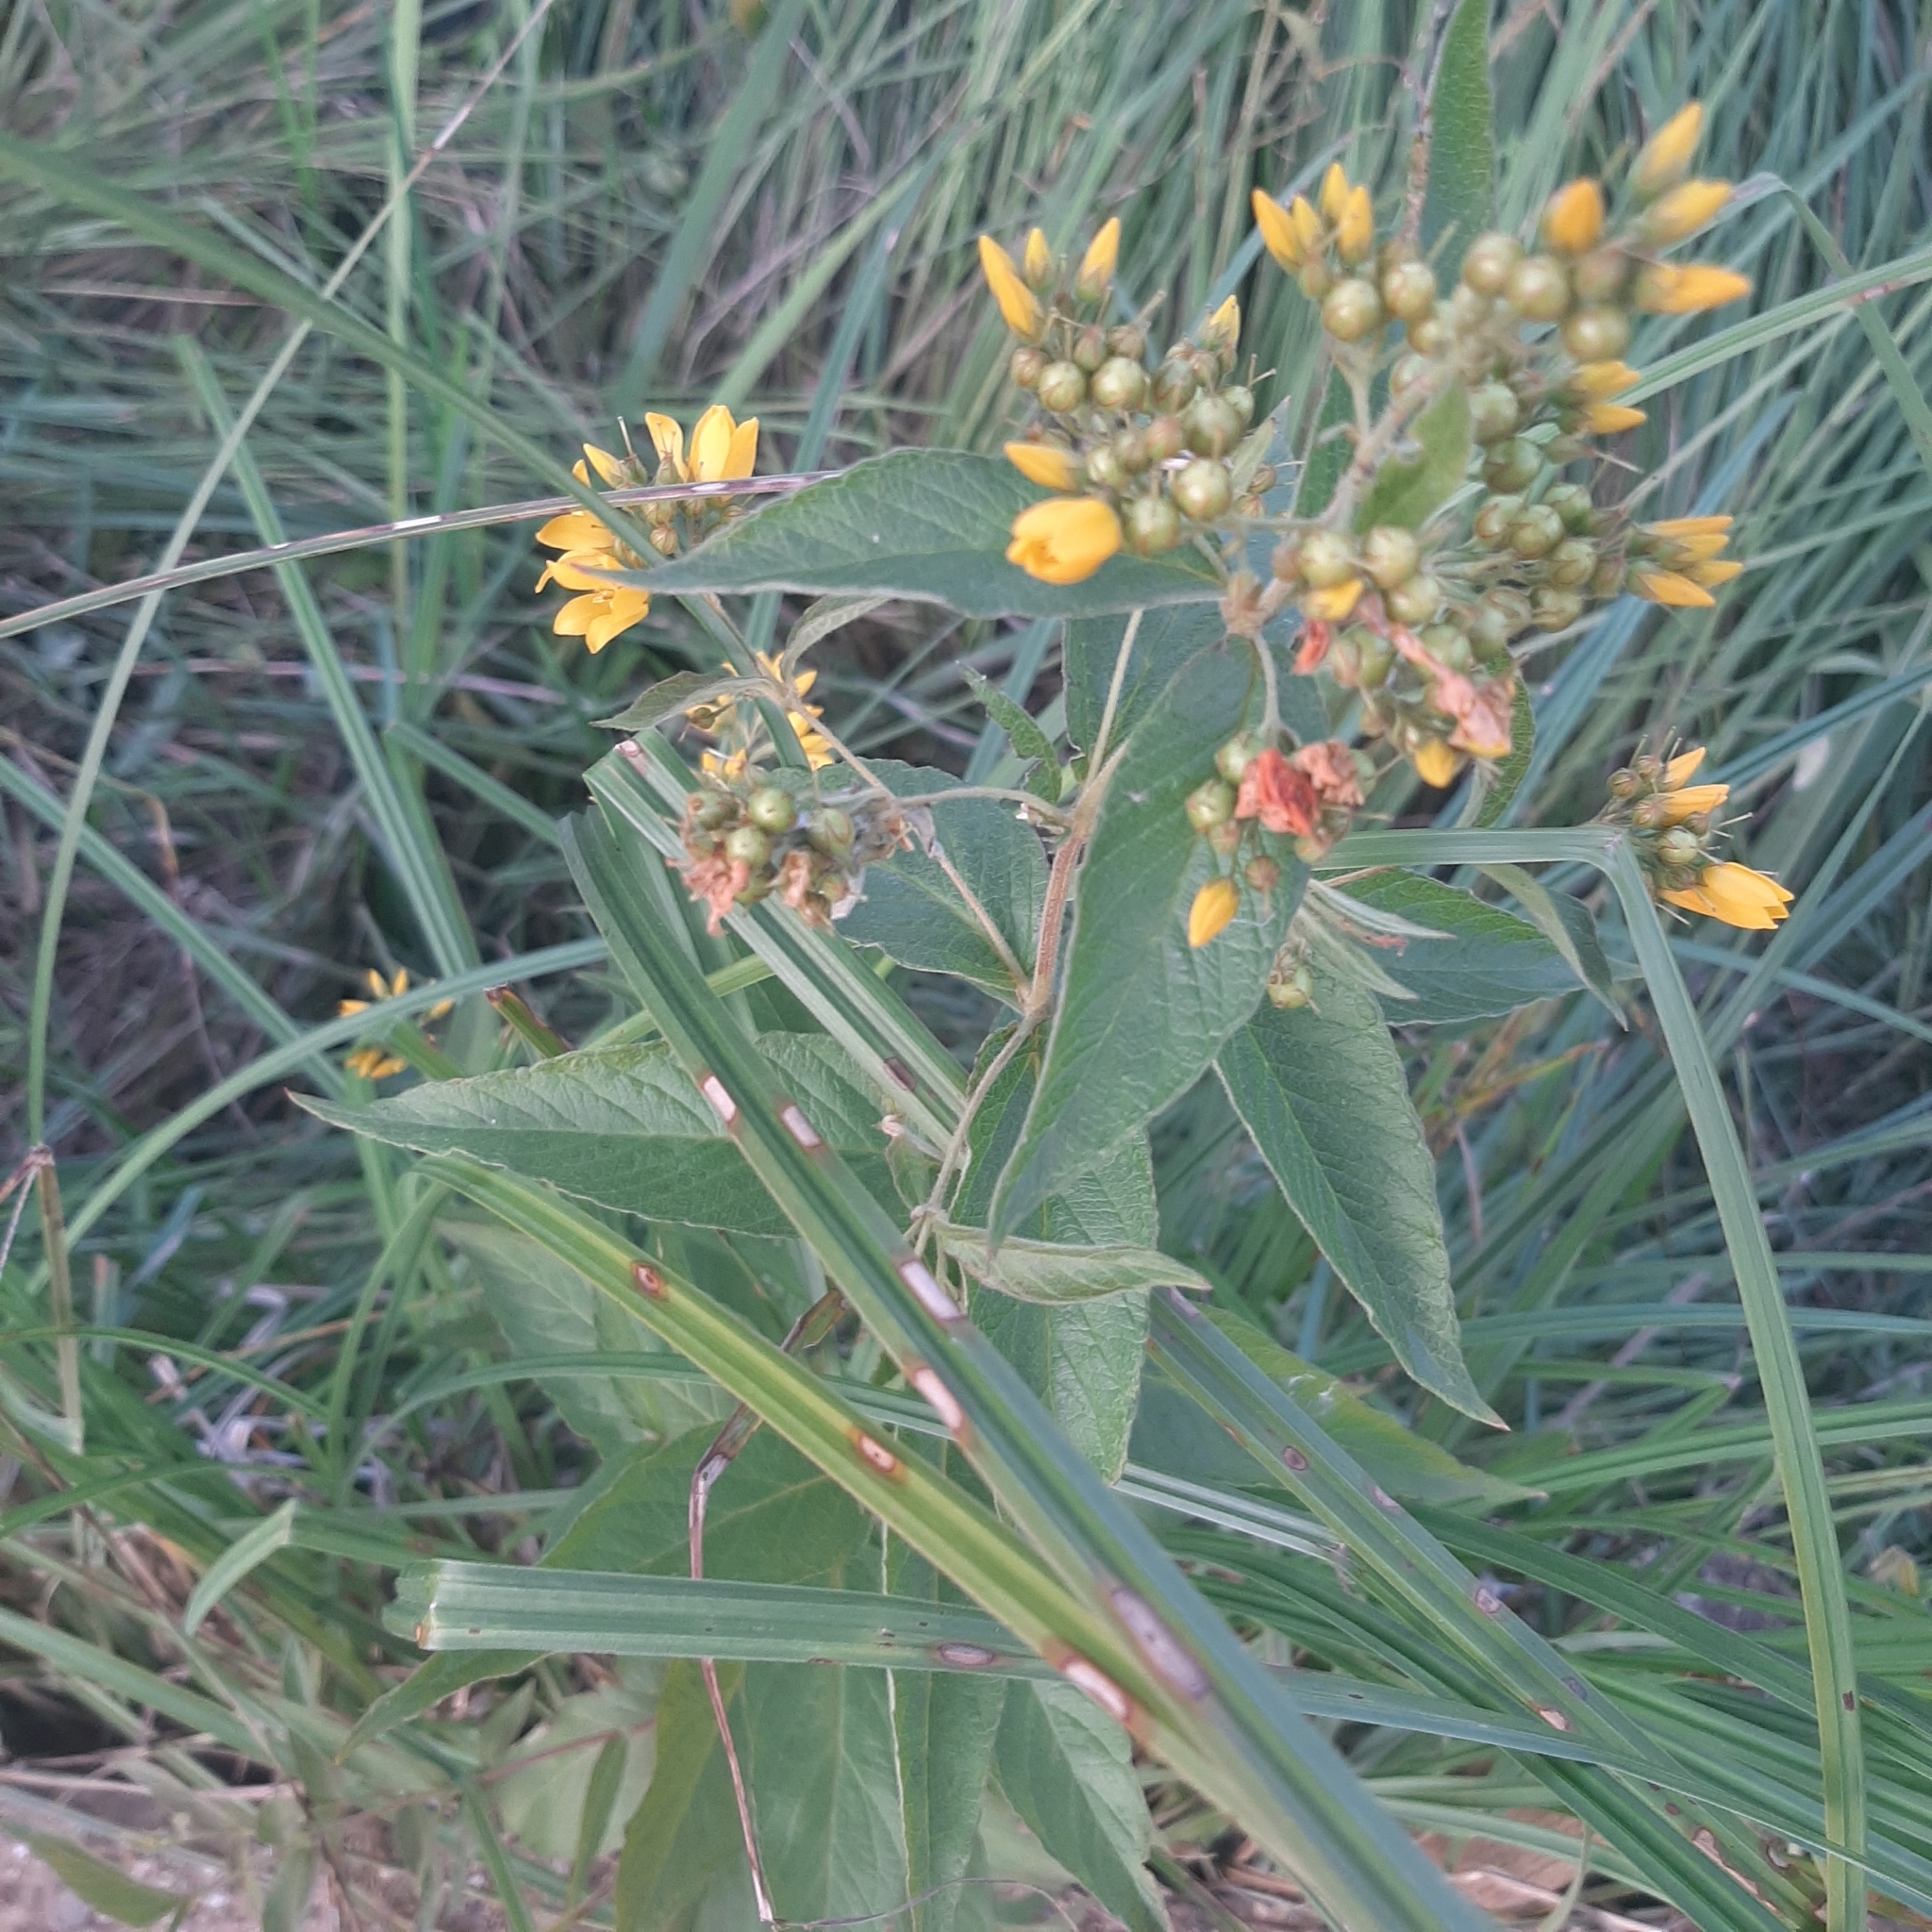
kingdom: Plantae
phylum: Tracheophyta
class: Magnoliopsida
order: Ericales
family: Primulaceae
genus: Lysimachia
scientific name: Lysimachia vulgaris
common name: Yellow loosestrife
